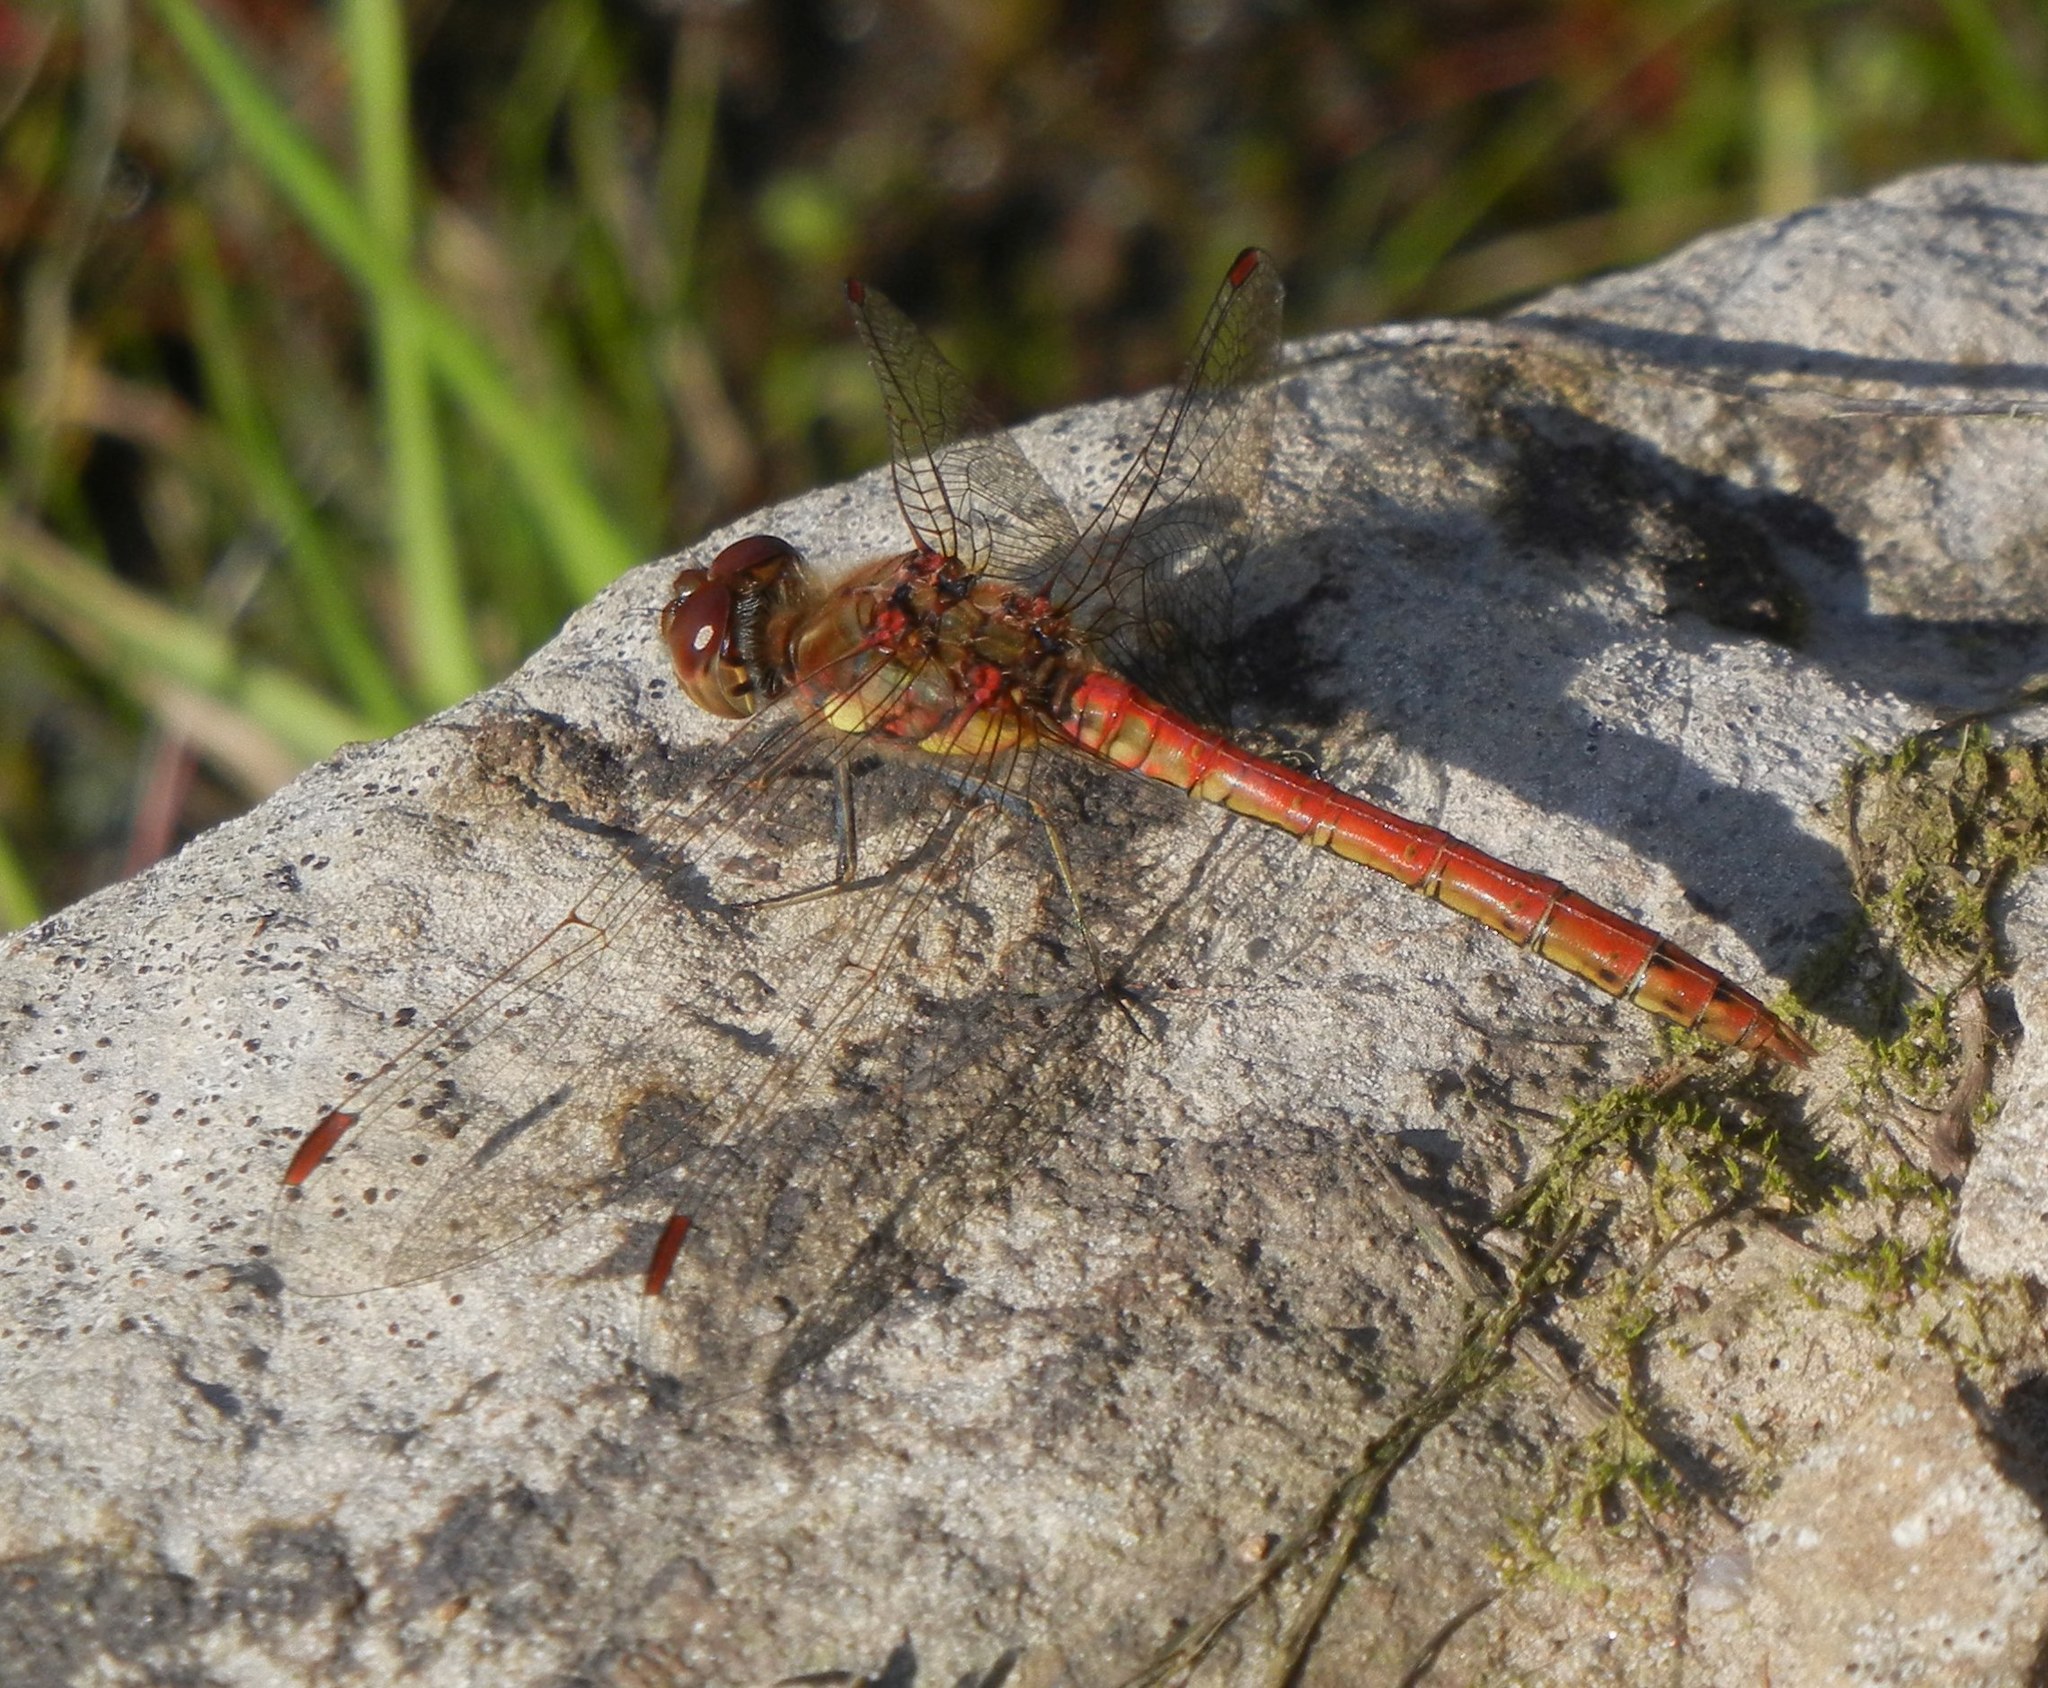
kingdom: Animalia
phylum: Arthropoda
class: Insecta
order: Odonata
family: Libellulidae
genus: Sympetrum
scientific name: Sympetrum striolatum
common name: Common darter
